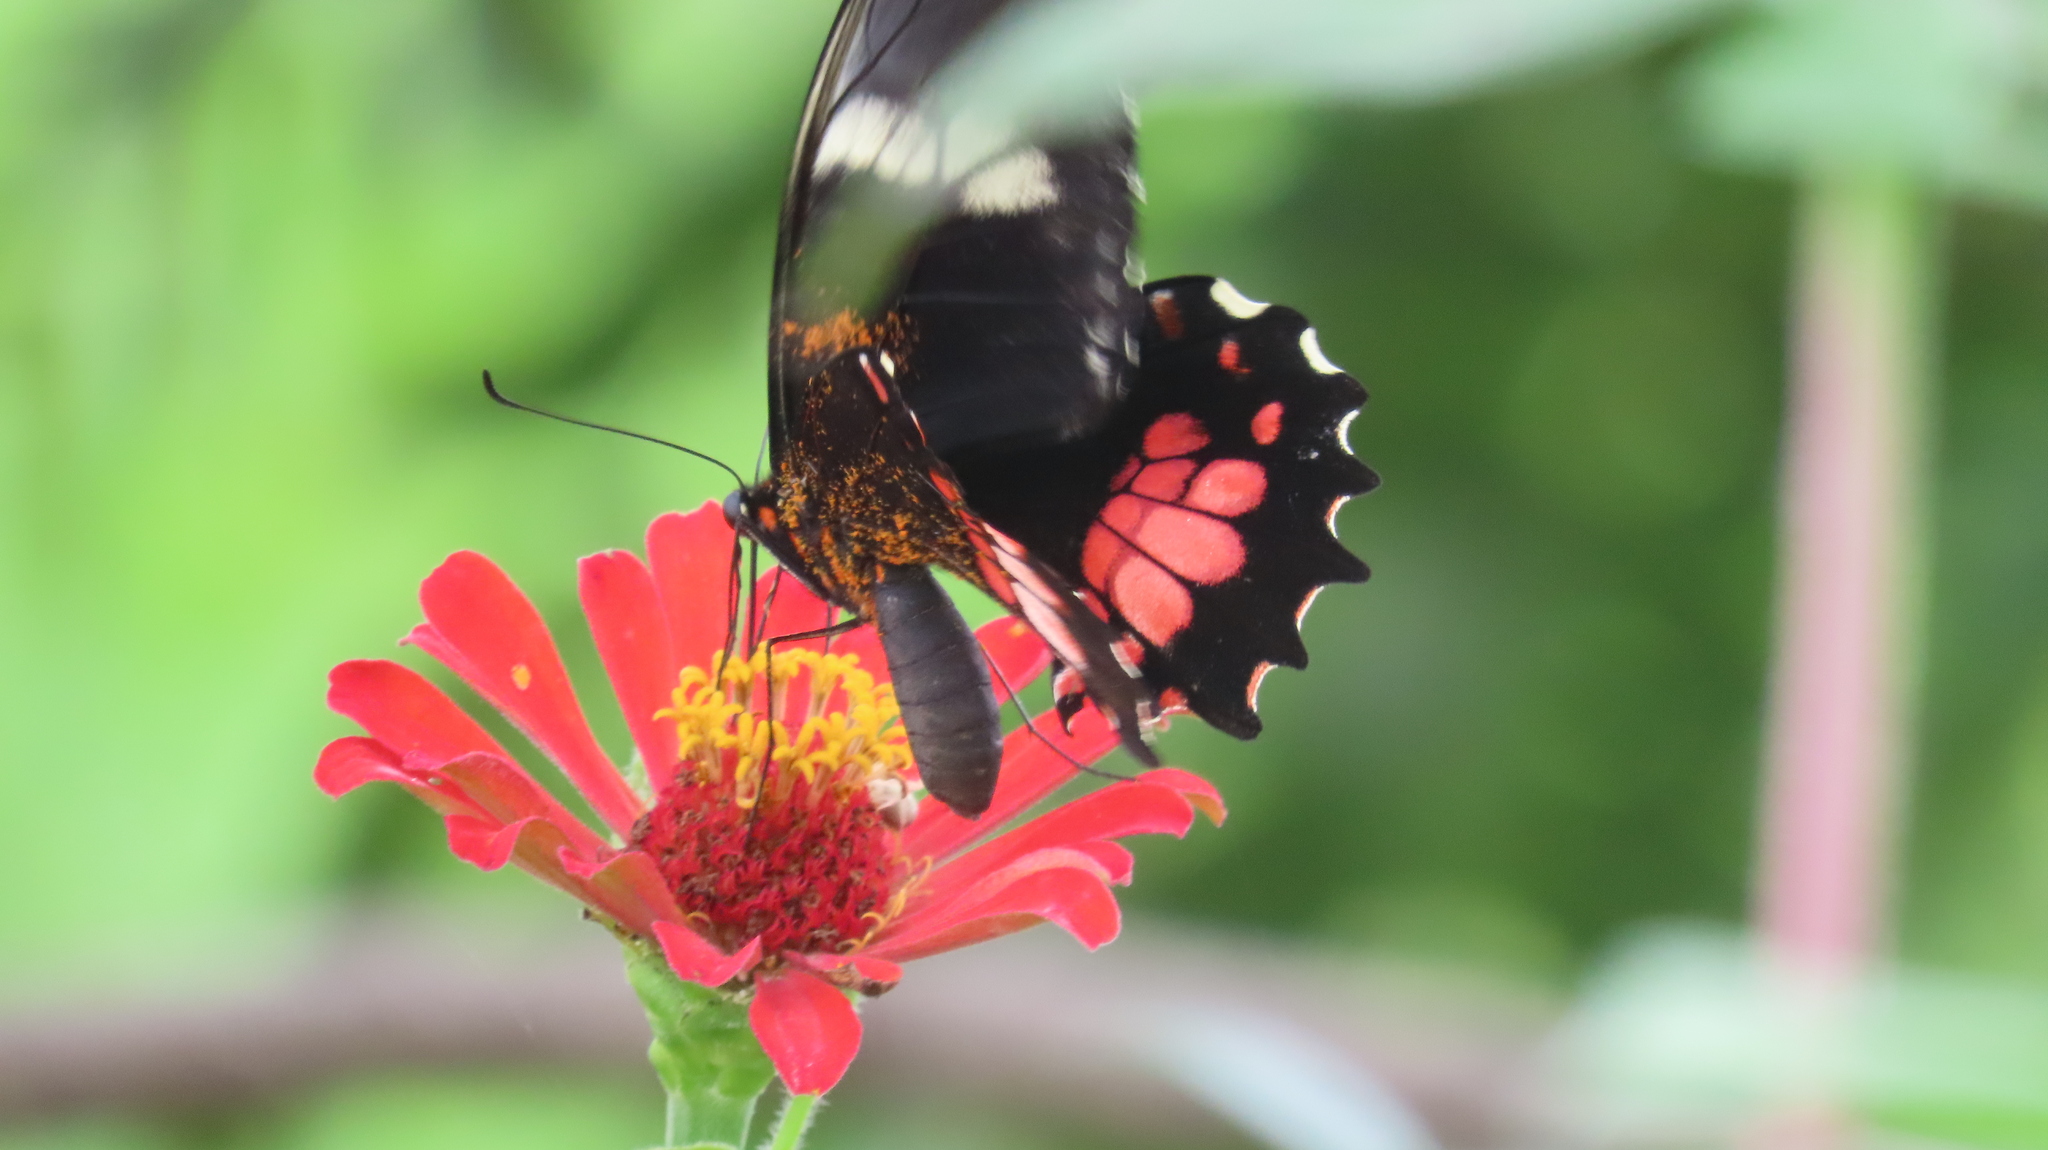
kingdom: Animalia
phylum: Arthropoda
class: Insecta
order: Lepidoptera
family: Papilionidae
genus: Papilio
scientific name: Papilio anchisiades
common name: Idaes swallowtail
